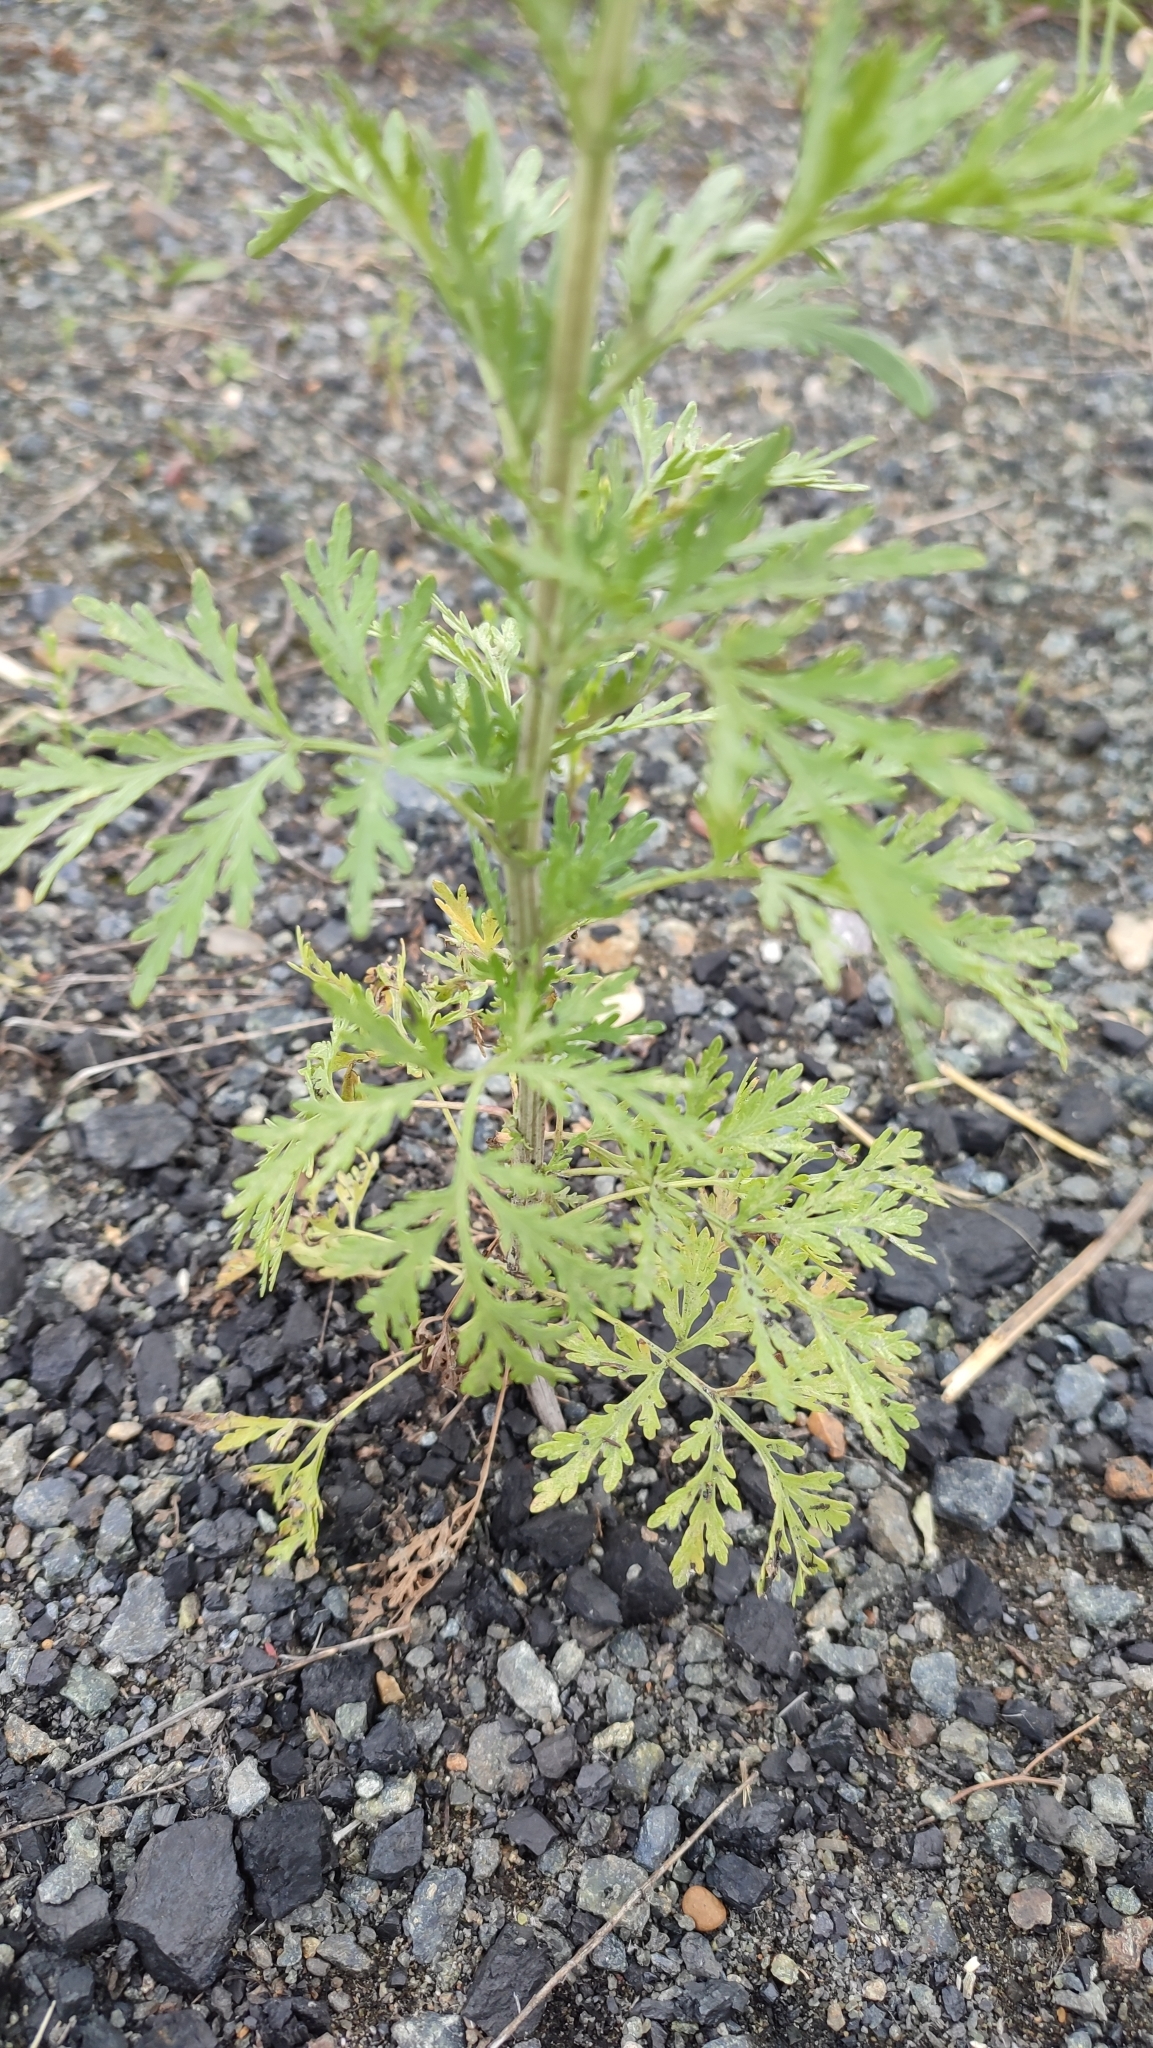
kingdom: Plantae
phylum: Tracheophyta
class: Magnoliopsida
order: Asterales
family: Asteraceae
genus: Artemisia
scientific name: Artemisia sieversiana
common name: Sieversian wormwood
